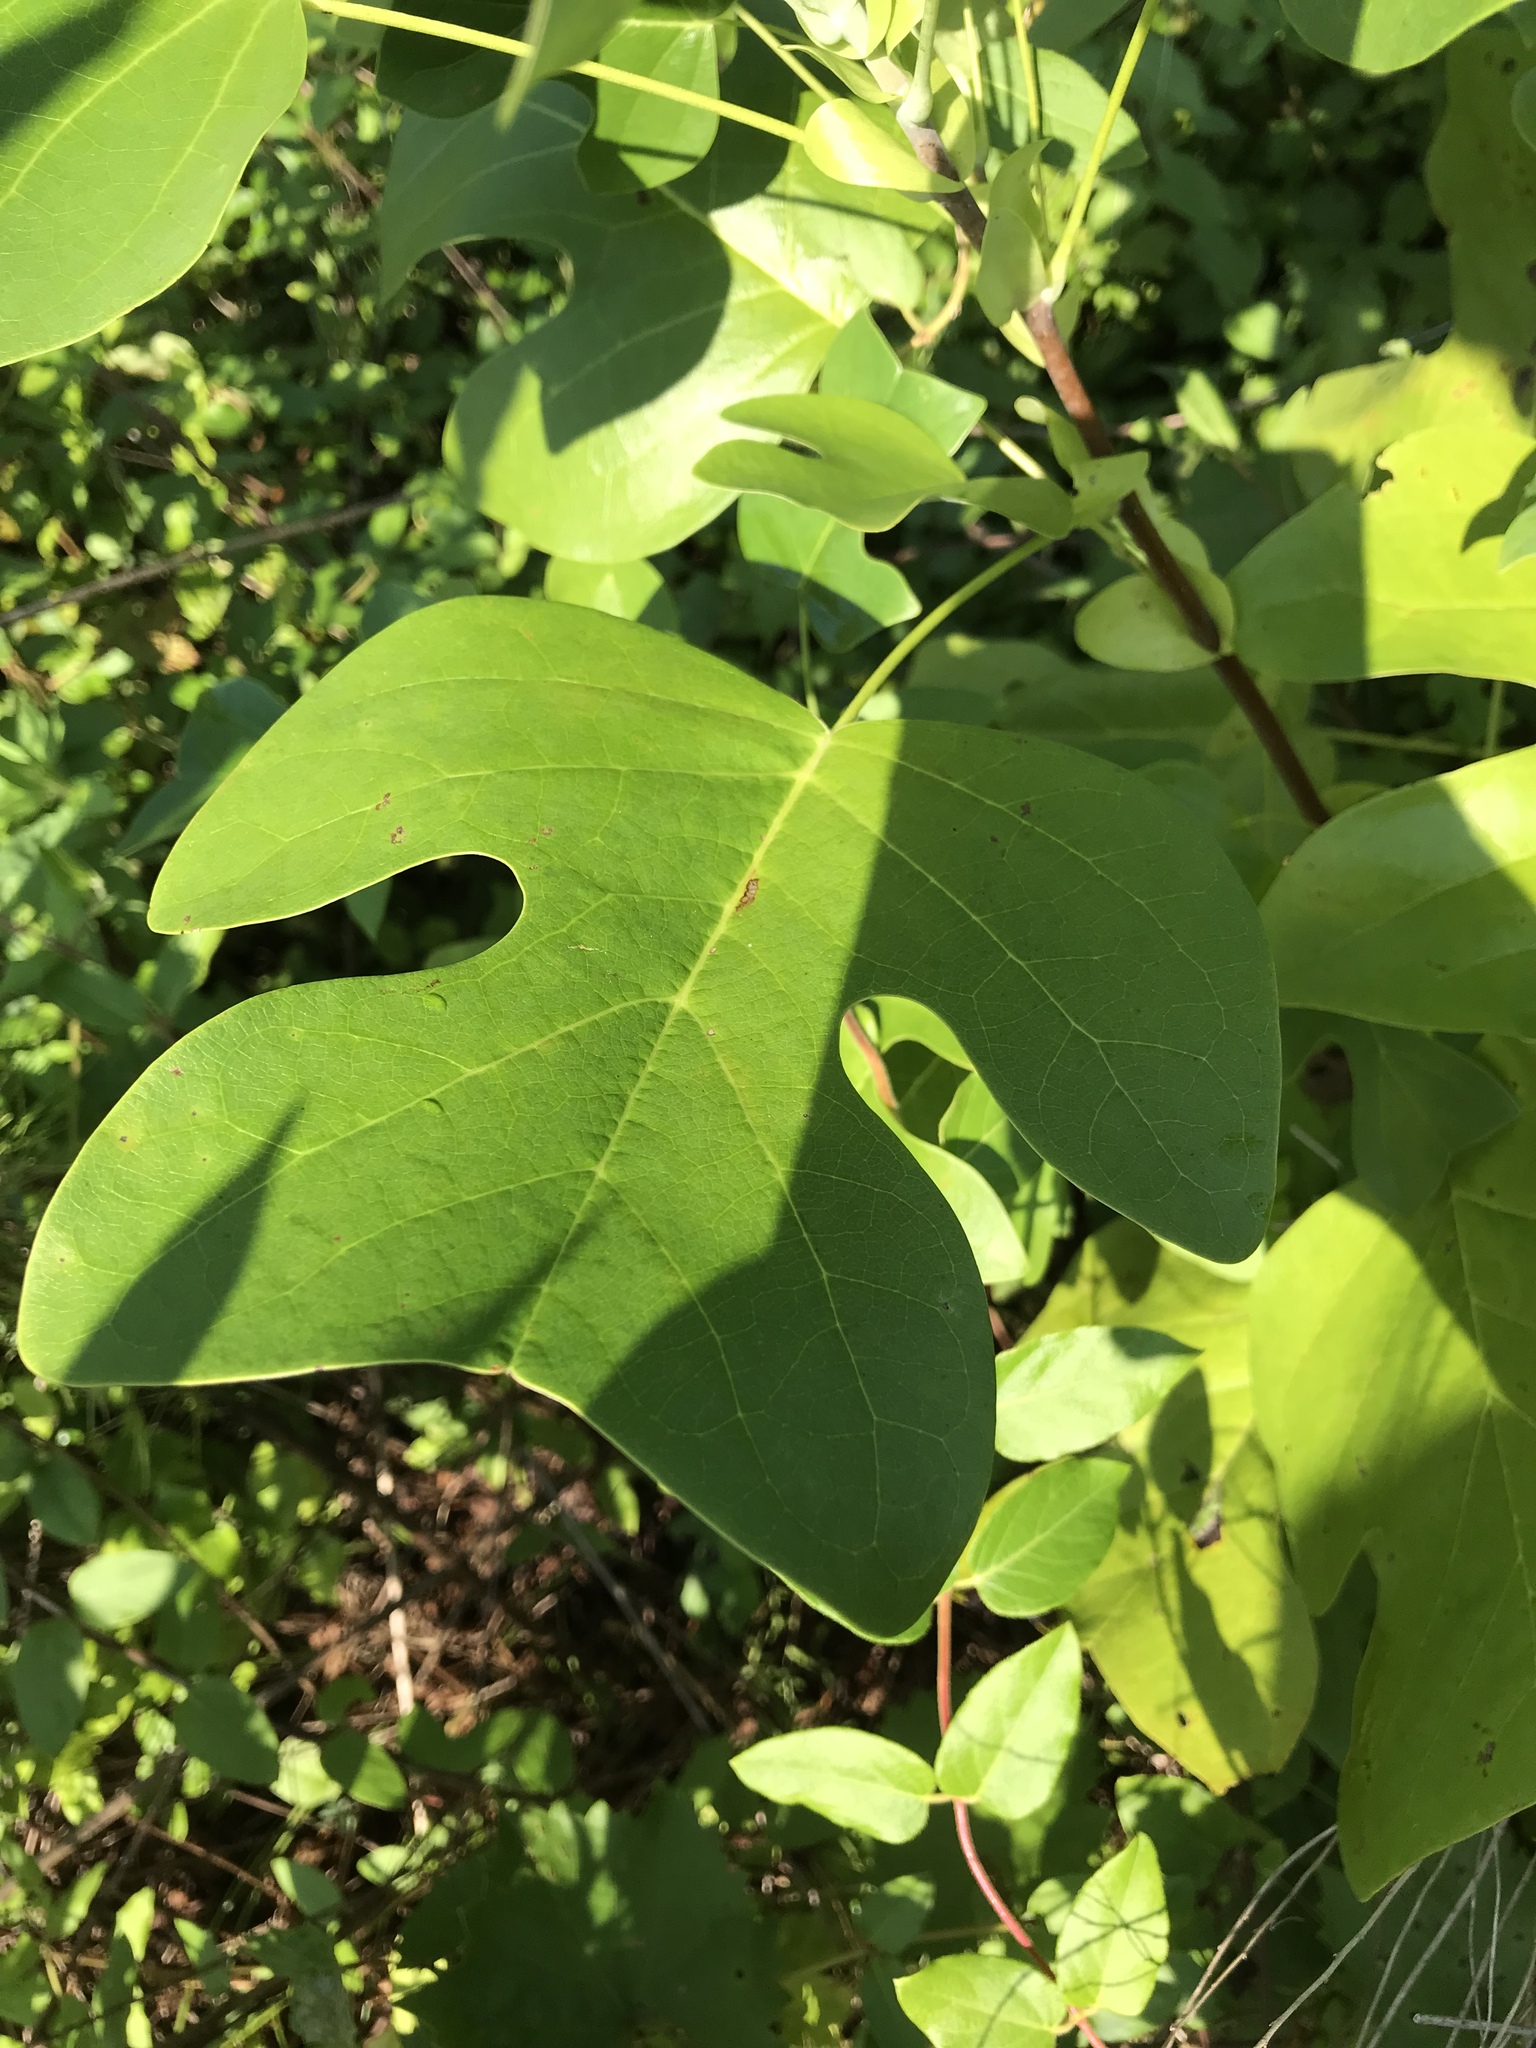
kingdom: Plantae
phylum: Tracheophyta
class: Magnoliopsida
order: Magnoliales
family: Magnoliaceae
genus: Liriodendron
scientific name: Liriodendron tulipifera
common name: Tulip tree
